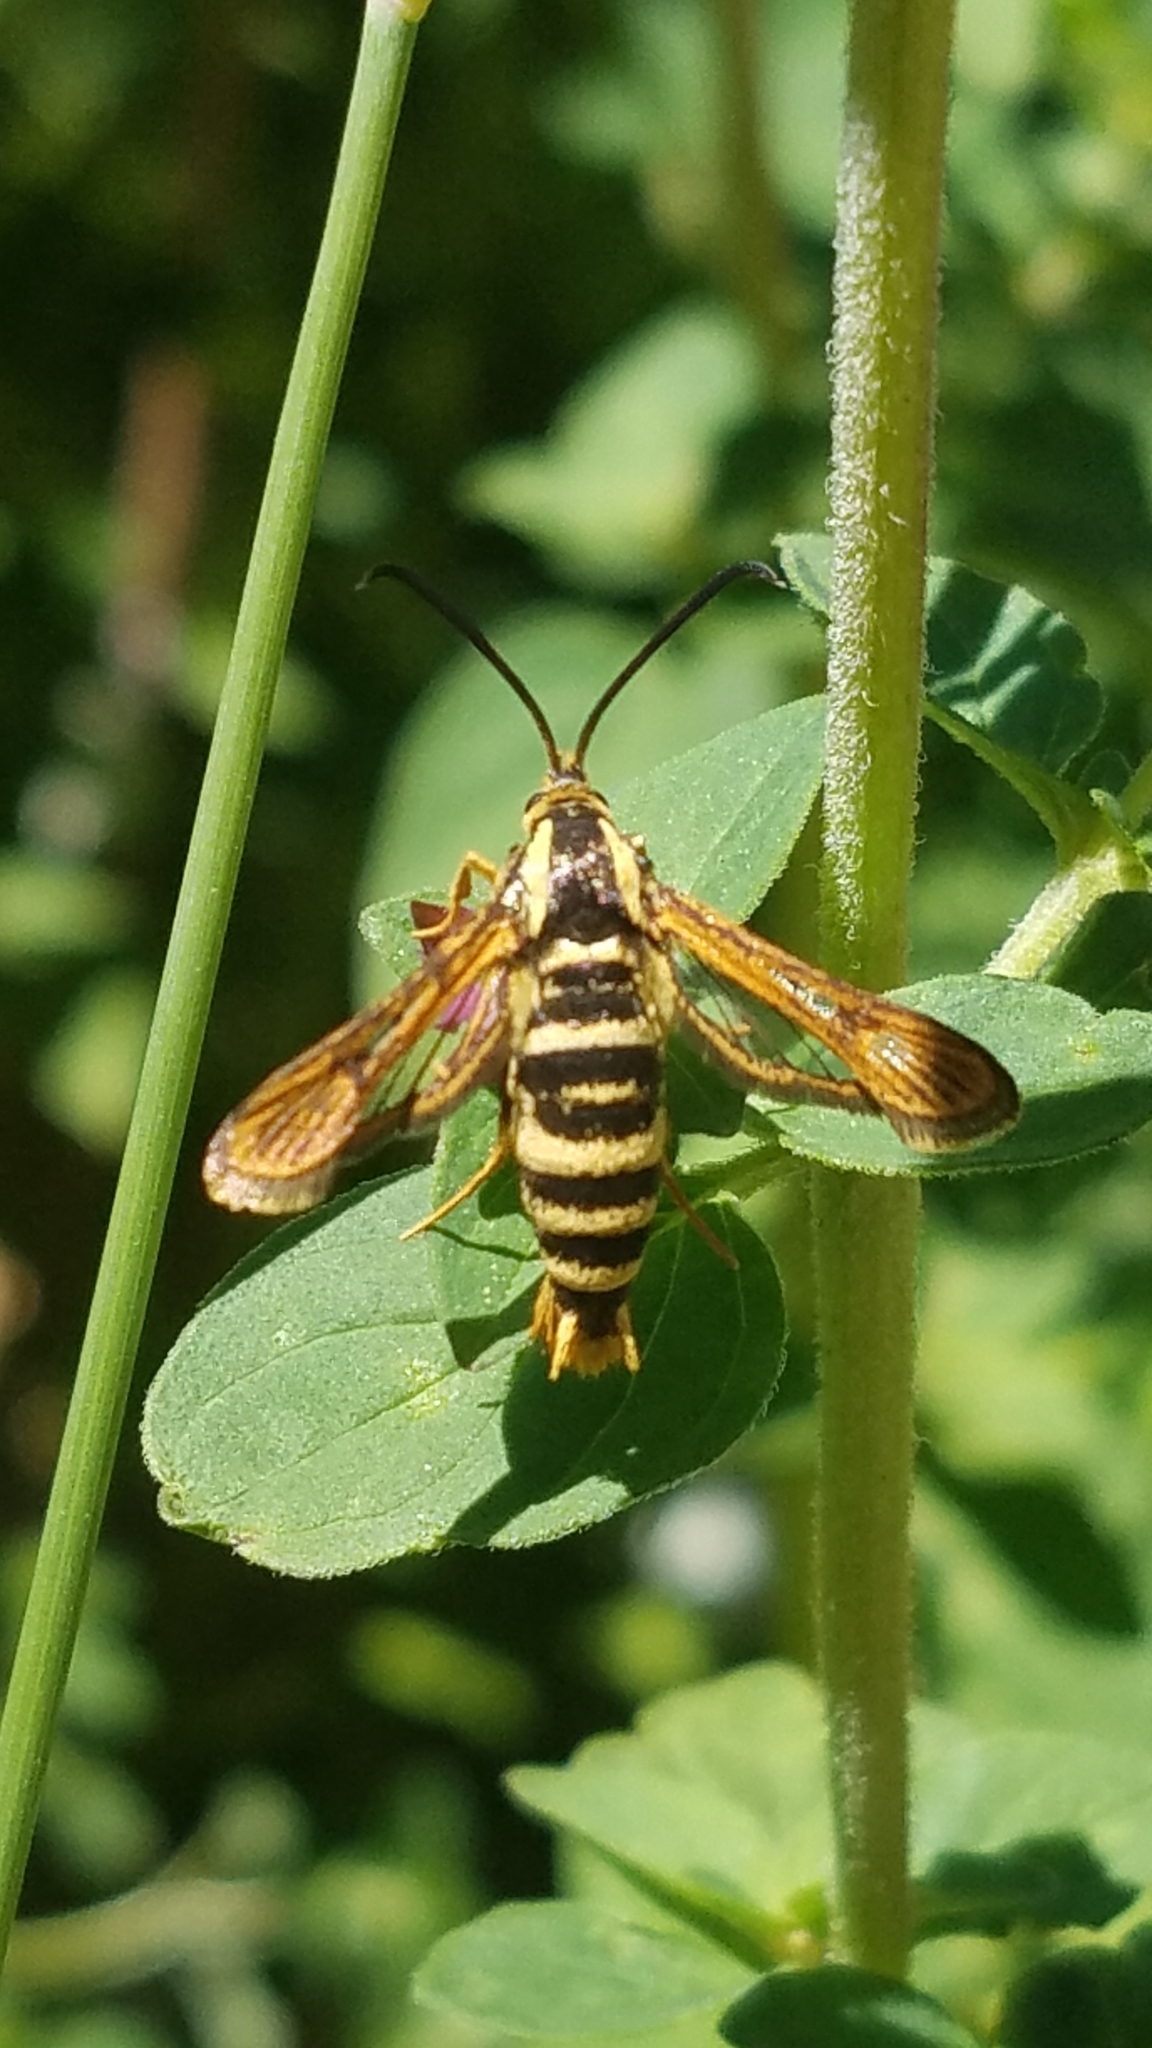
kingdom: Animalia
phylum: Arthropoda
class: Insecta
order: Lepidoptera
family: Sesiidae
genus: Synanthedon
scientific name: Synanthedon bibionipennis
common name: Strawberry crown moth
